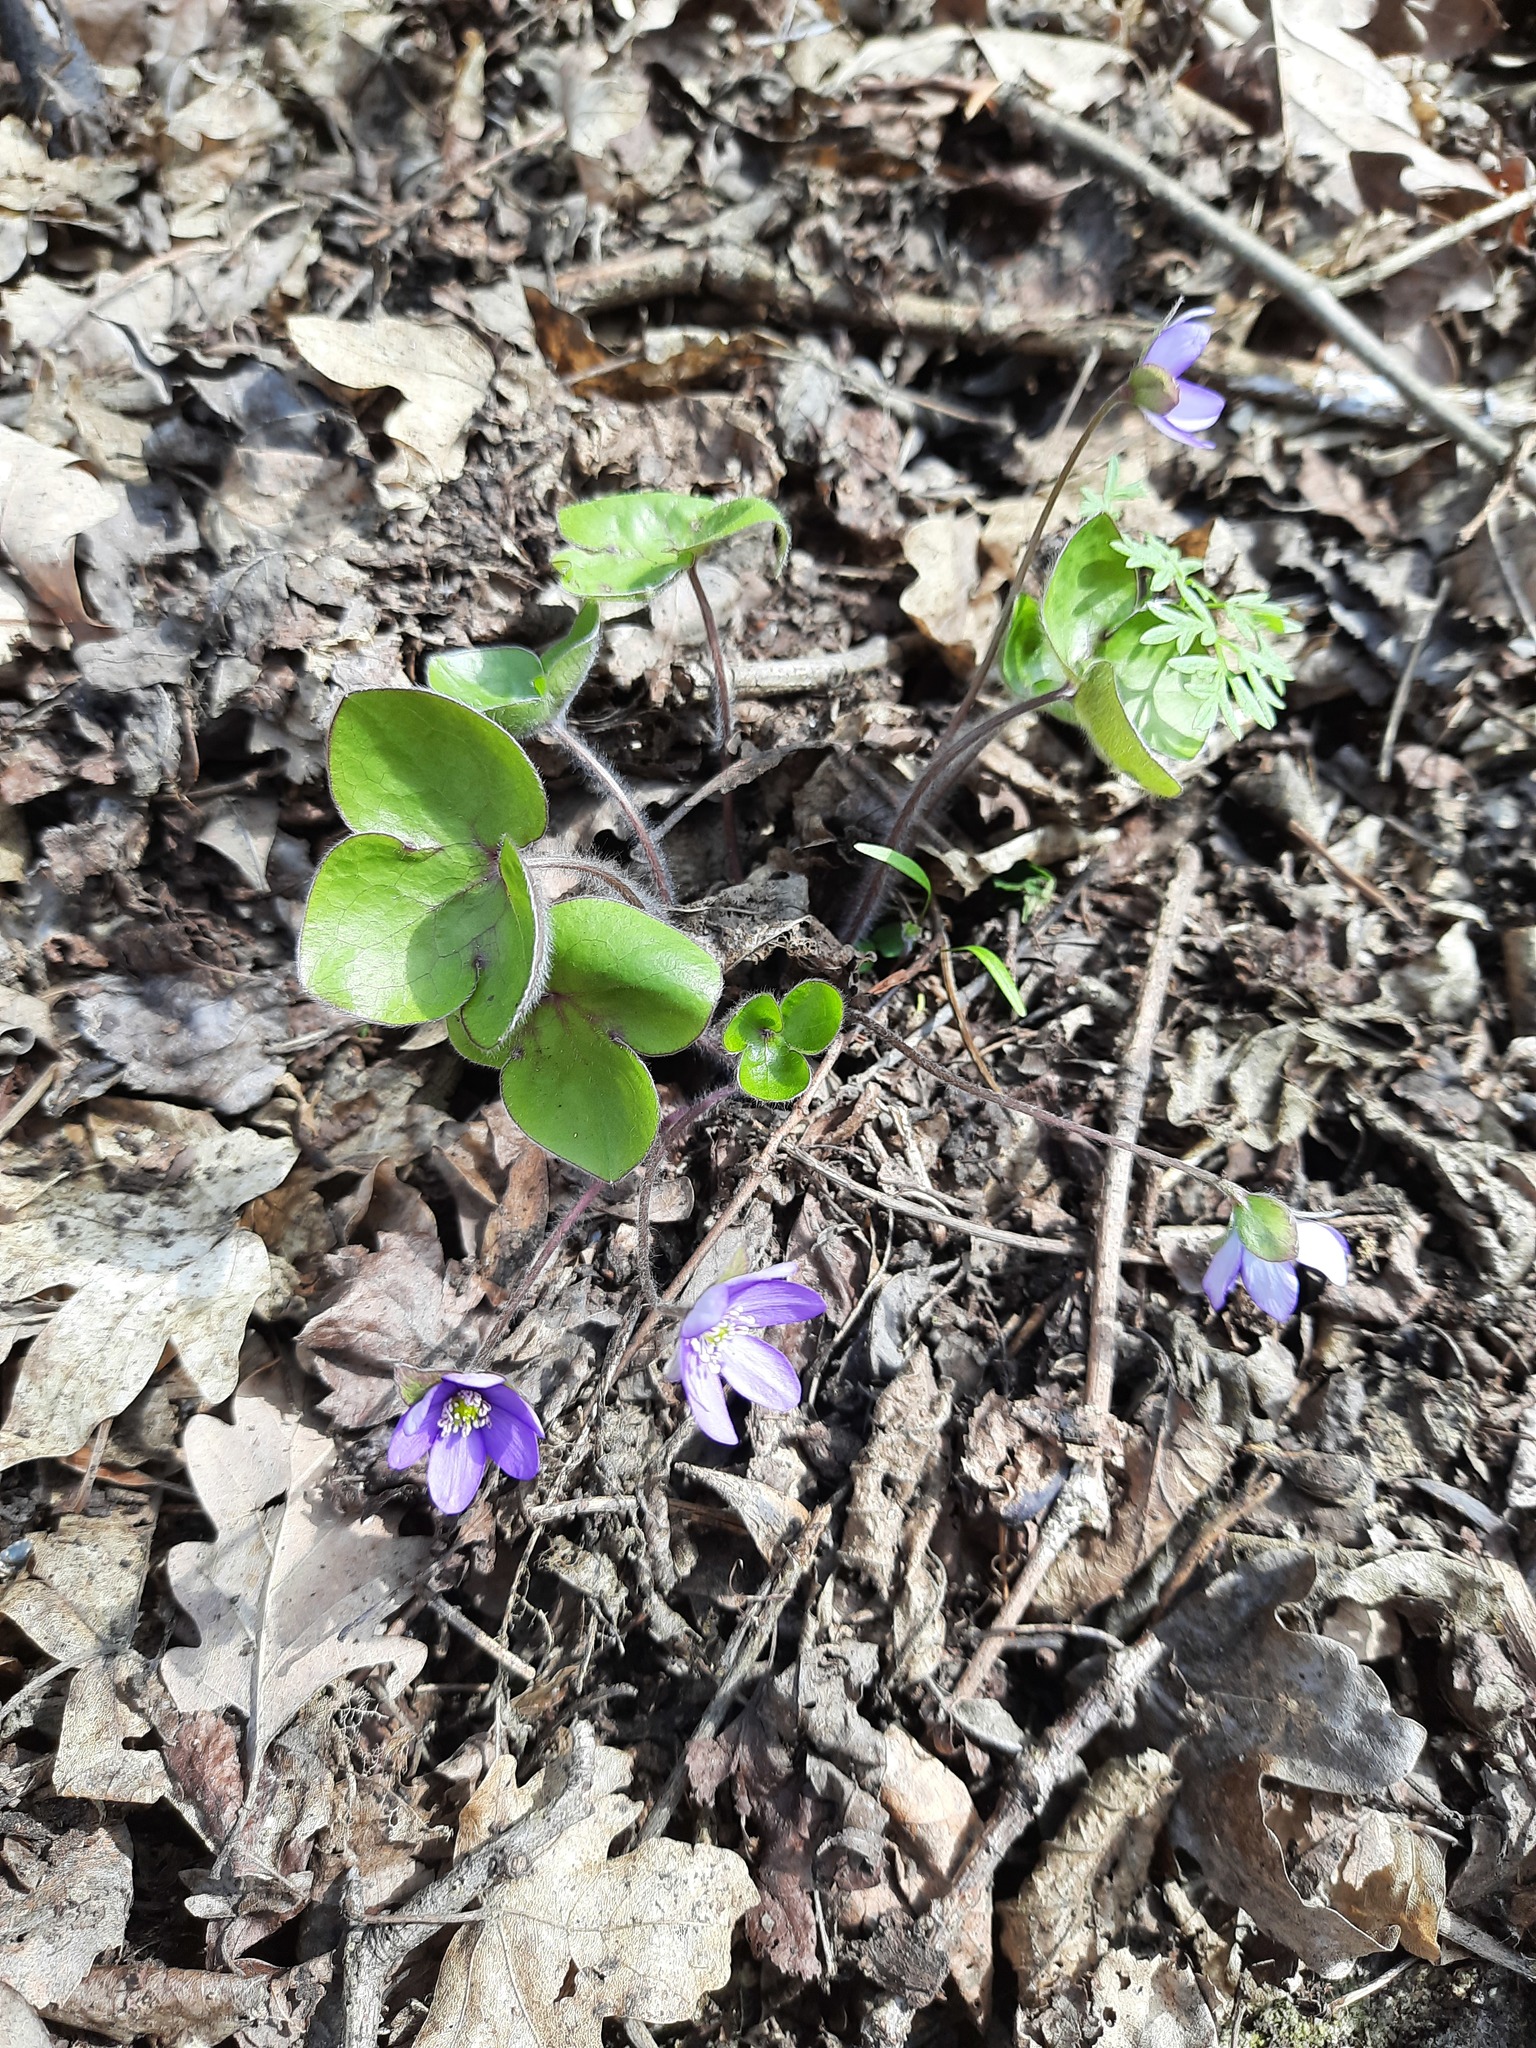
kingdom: Plantae
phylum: Tracheophyta
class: Magnoliopsida
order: Ranunculales
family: Ranunculaceae
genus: Hepatica
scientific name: Hepatica nobilis
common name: Liverleaf
